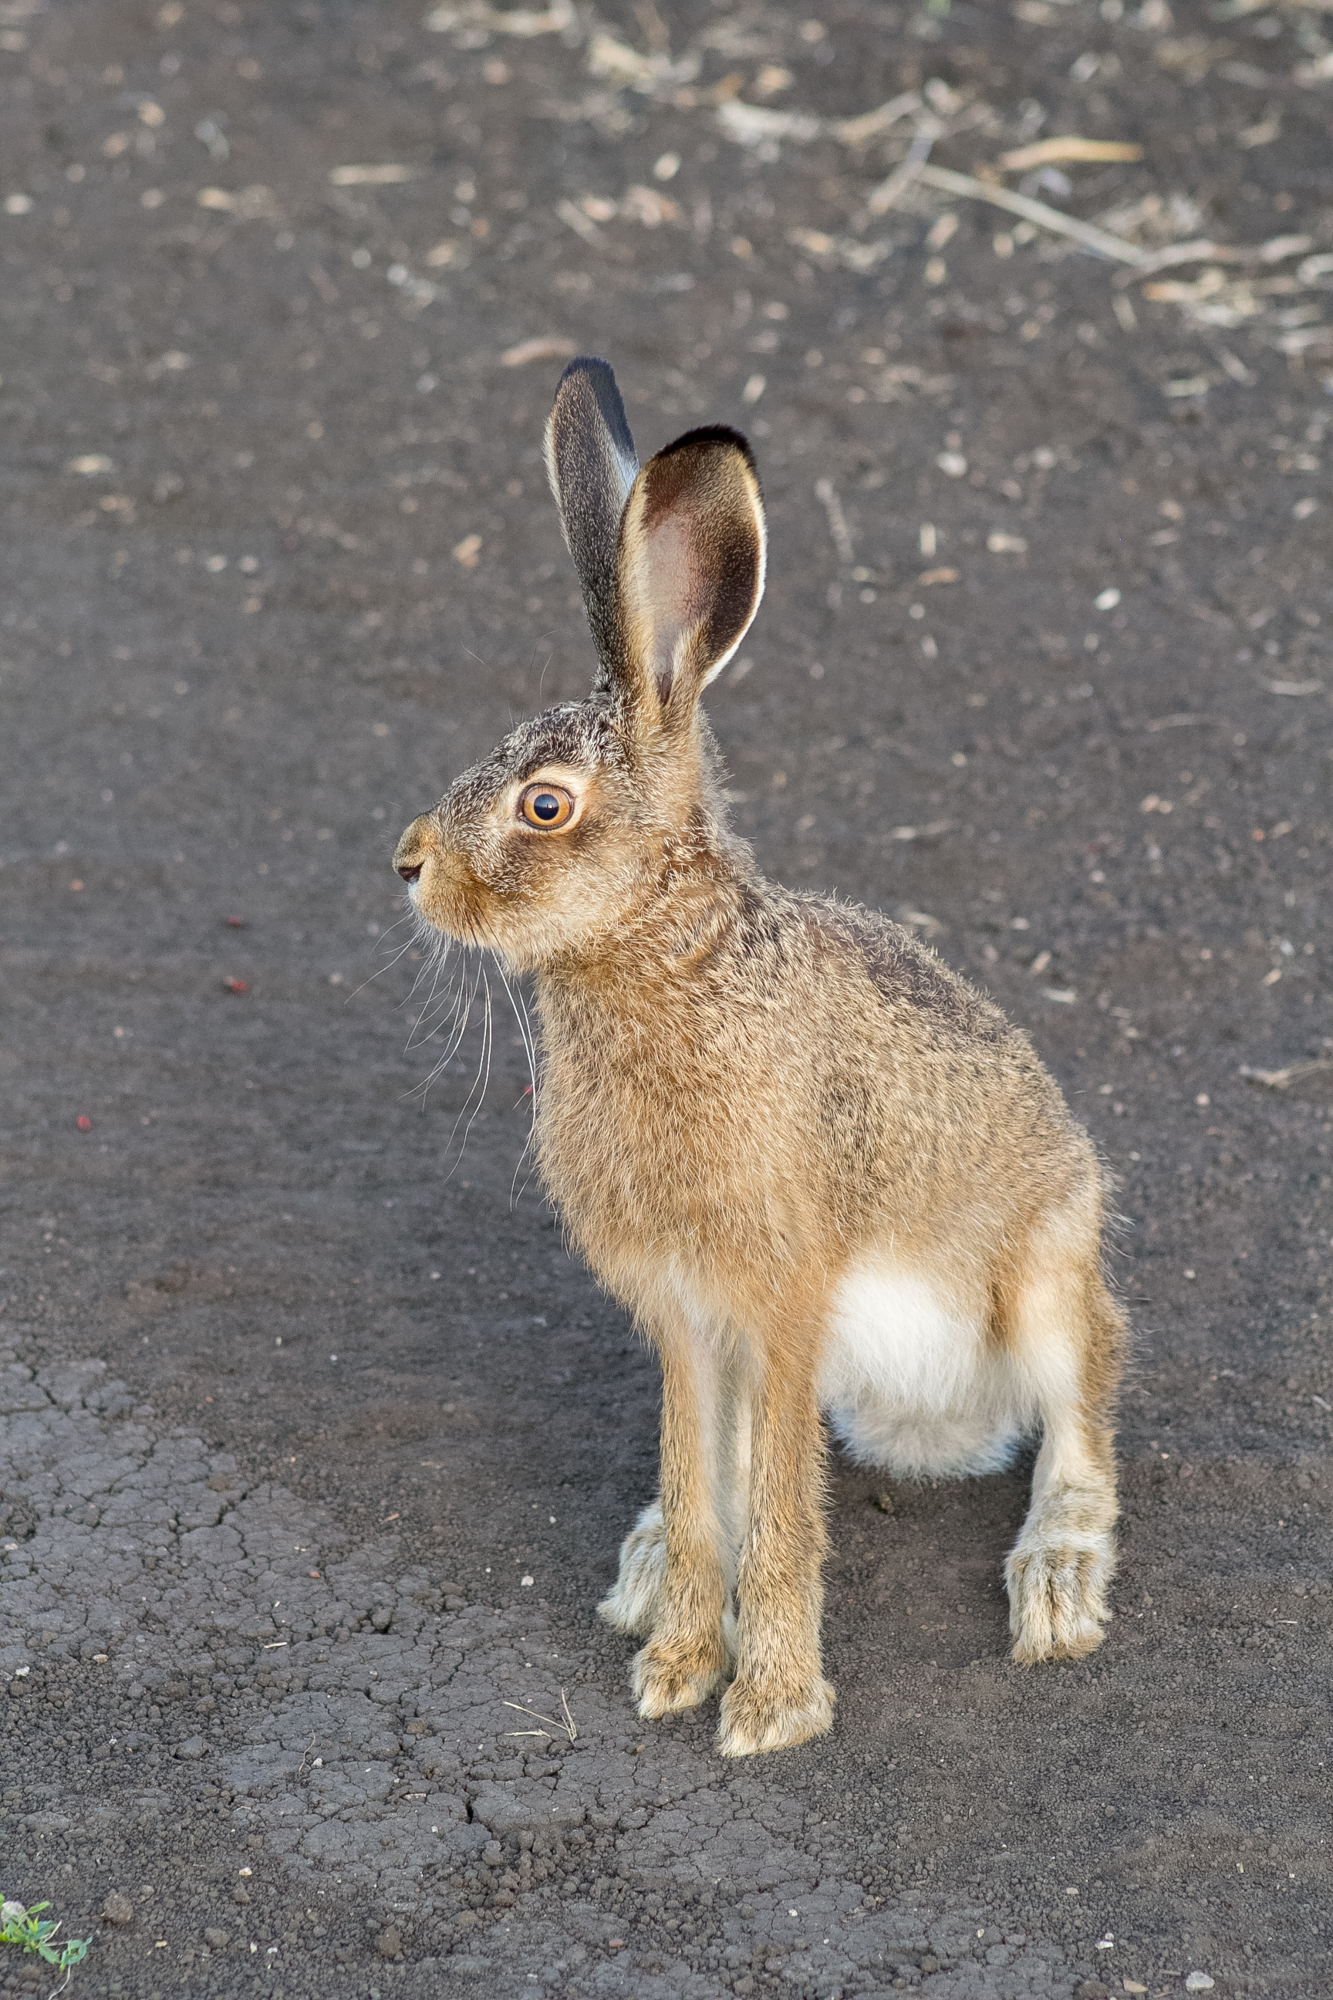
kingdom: Animalia
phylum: Chordata
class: Mammalia
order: Lagomorpha
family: Leporidae
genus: Lepus
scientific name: Lepus europaeus
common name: European hare
